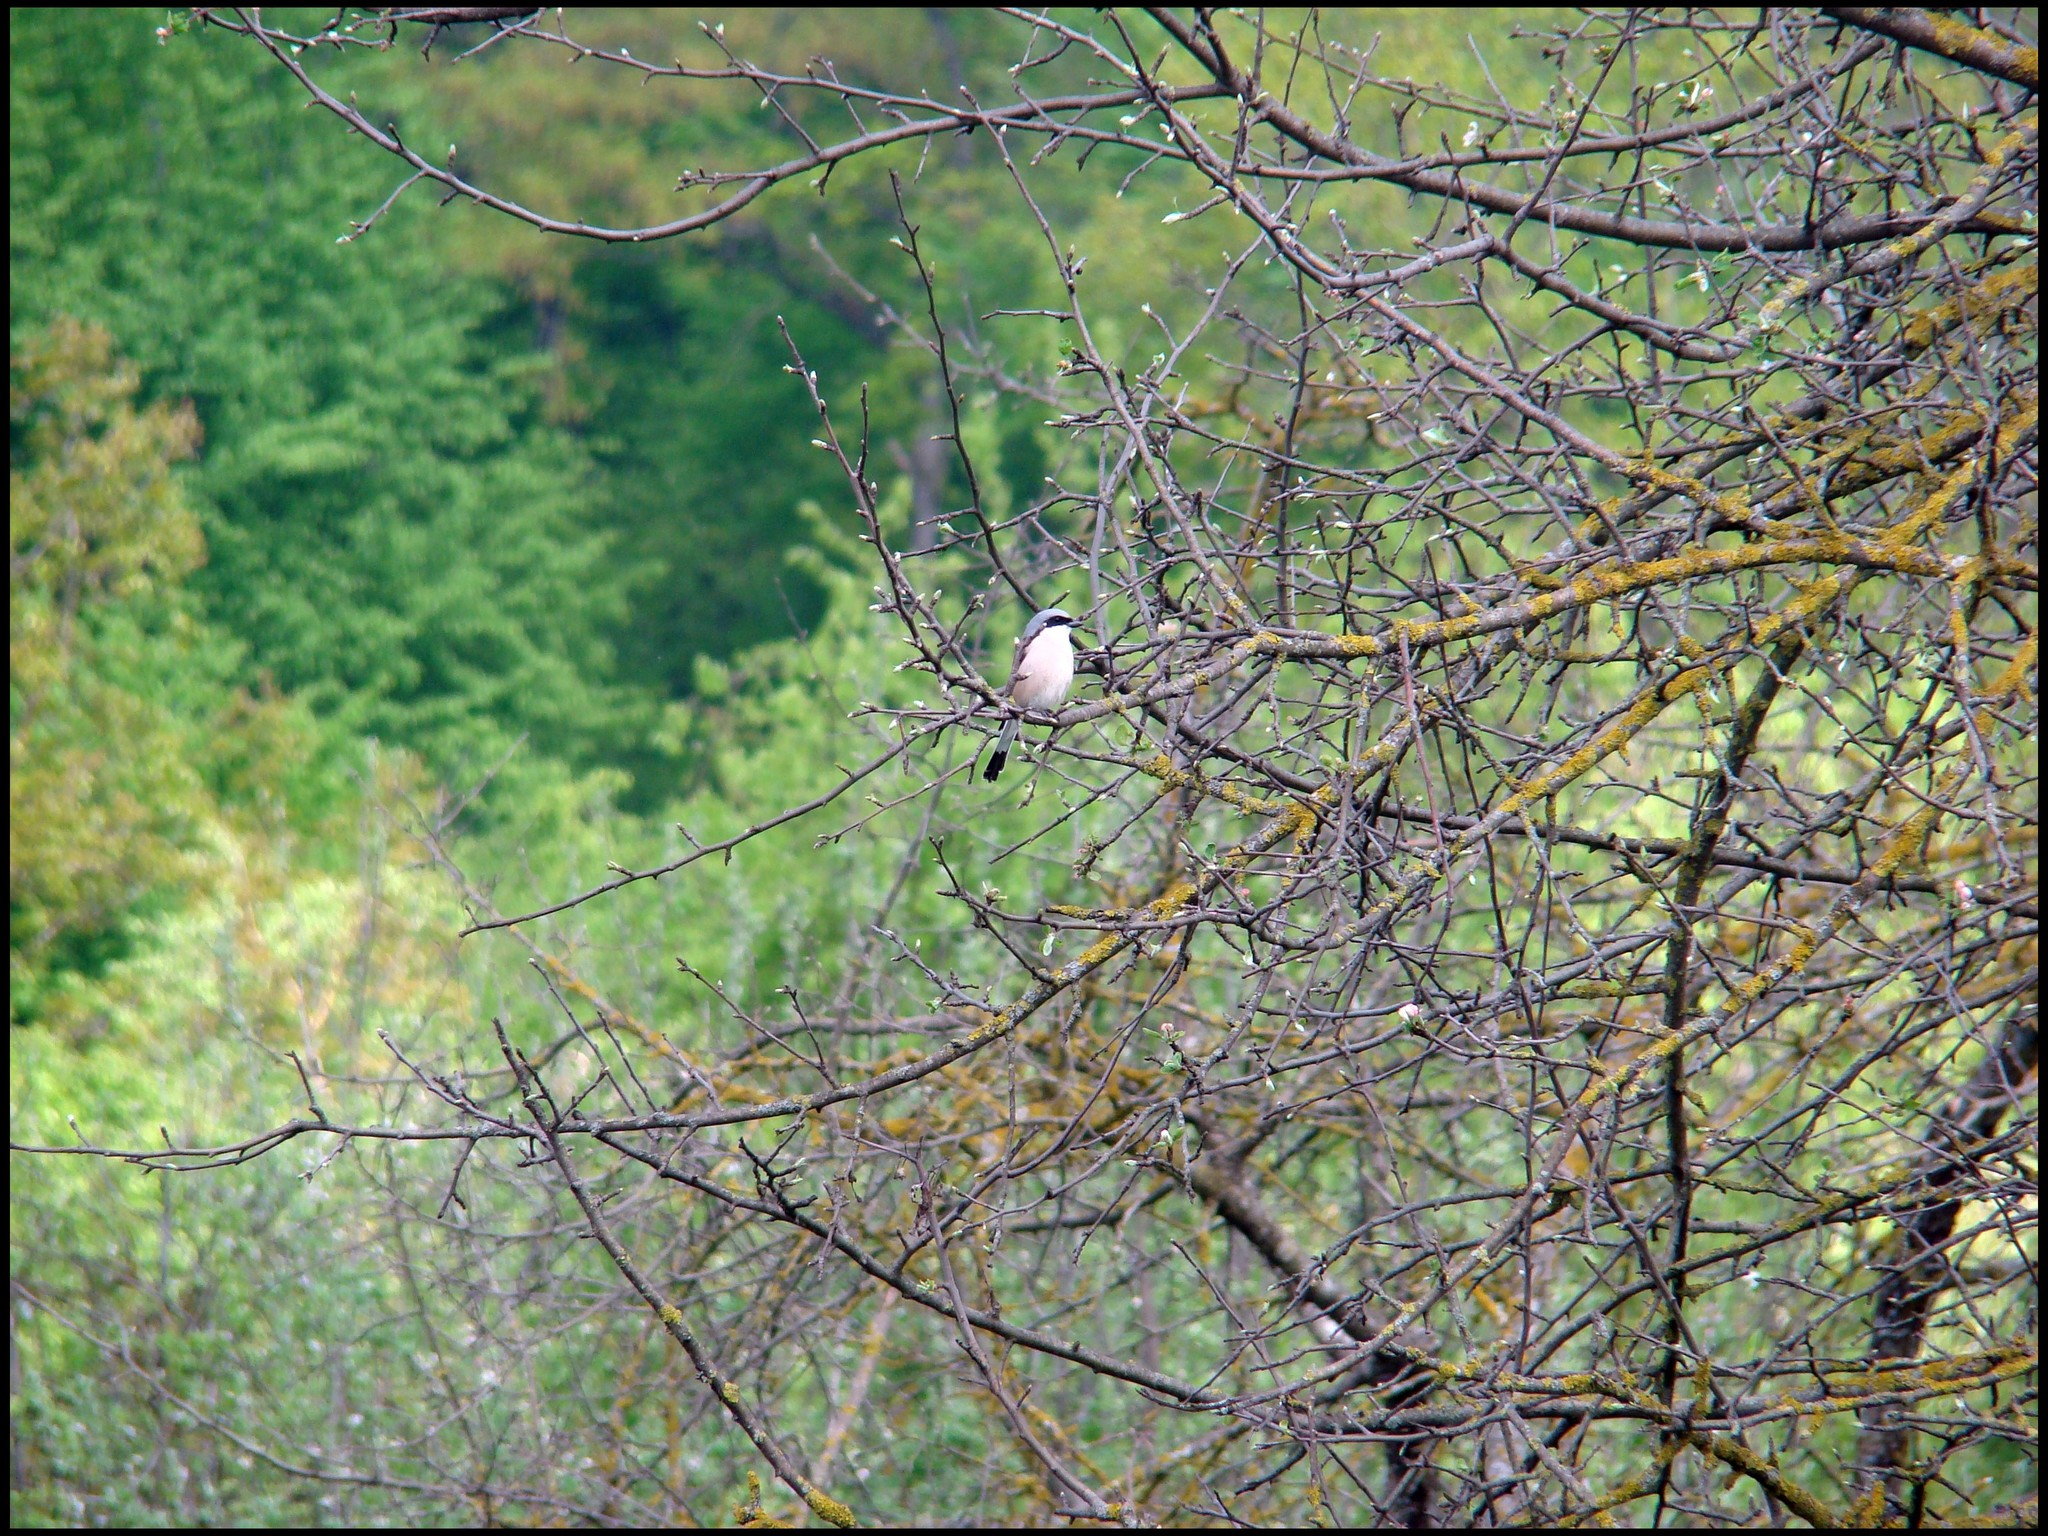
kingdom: Animalia
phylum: Chordata
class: Aves
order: Passeriformes
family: Laniidae
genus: Lanius
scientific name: Lanius collurio
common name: Red-backed shrike
